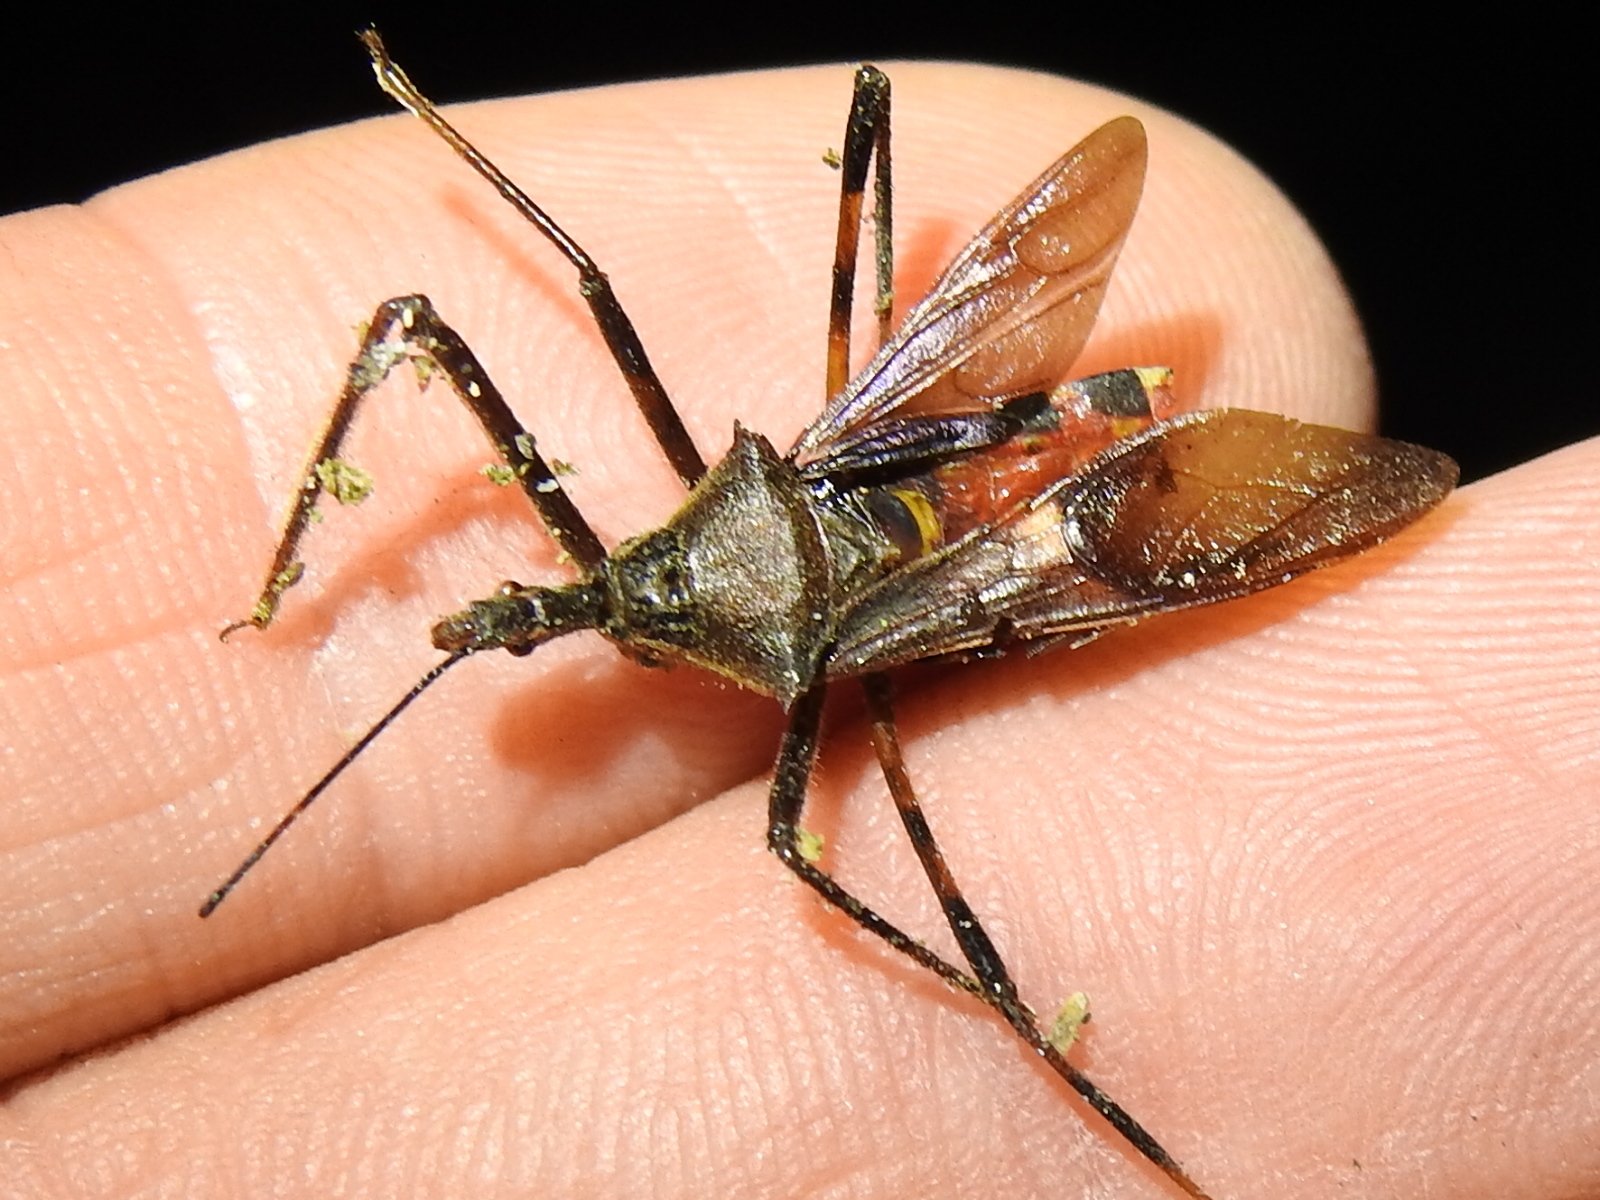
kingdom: Animalia
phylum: Arthropoda
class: Insecta
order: Hemiptera
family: Reduviidae
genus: Zelus
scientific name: Zelus janus
